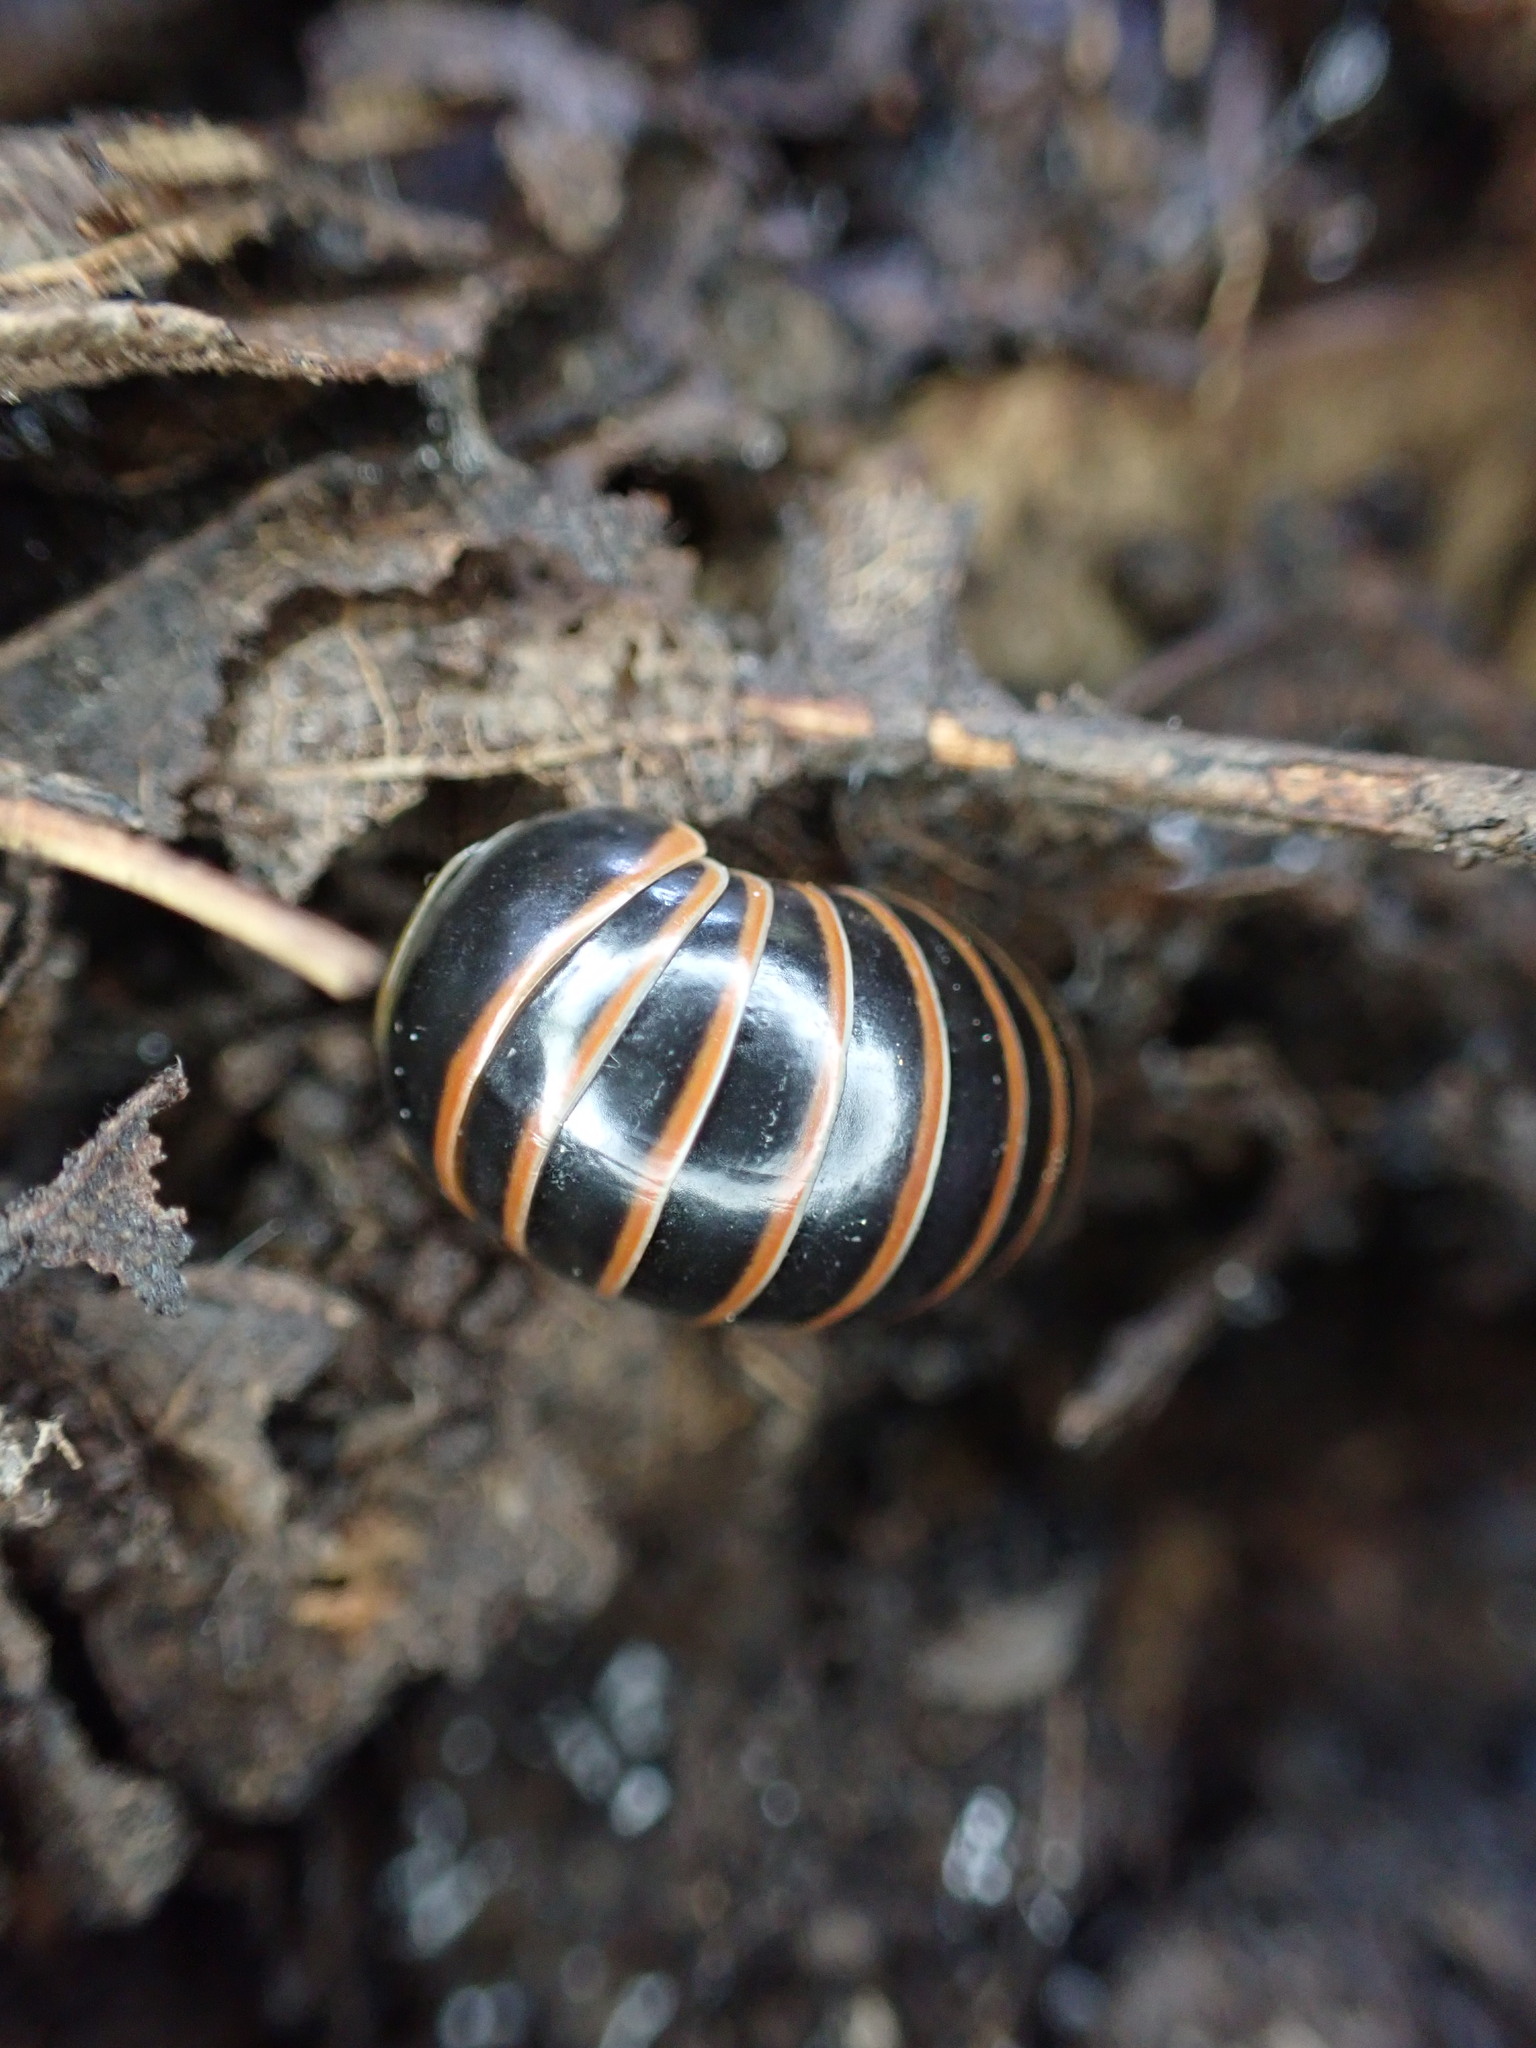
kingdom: Animalia
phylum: Arthropoda
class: Diplopoda
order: Glomerida
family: Glomeridae
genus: Glomeris
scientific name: Glomeris marginata
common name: Bordered pill millipede
